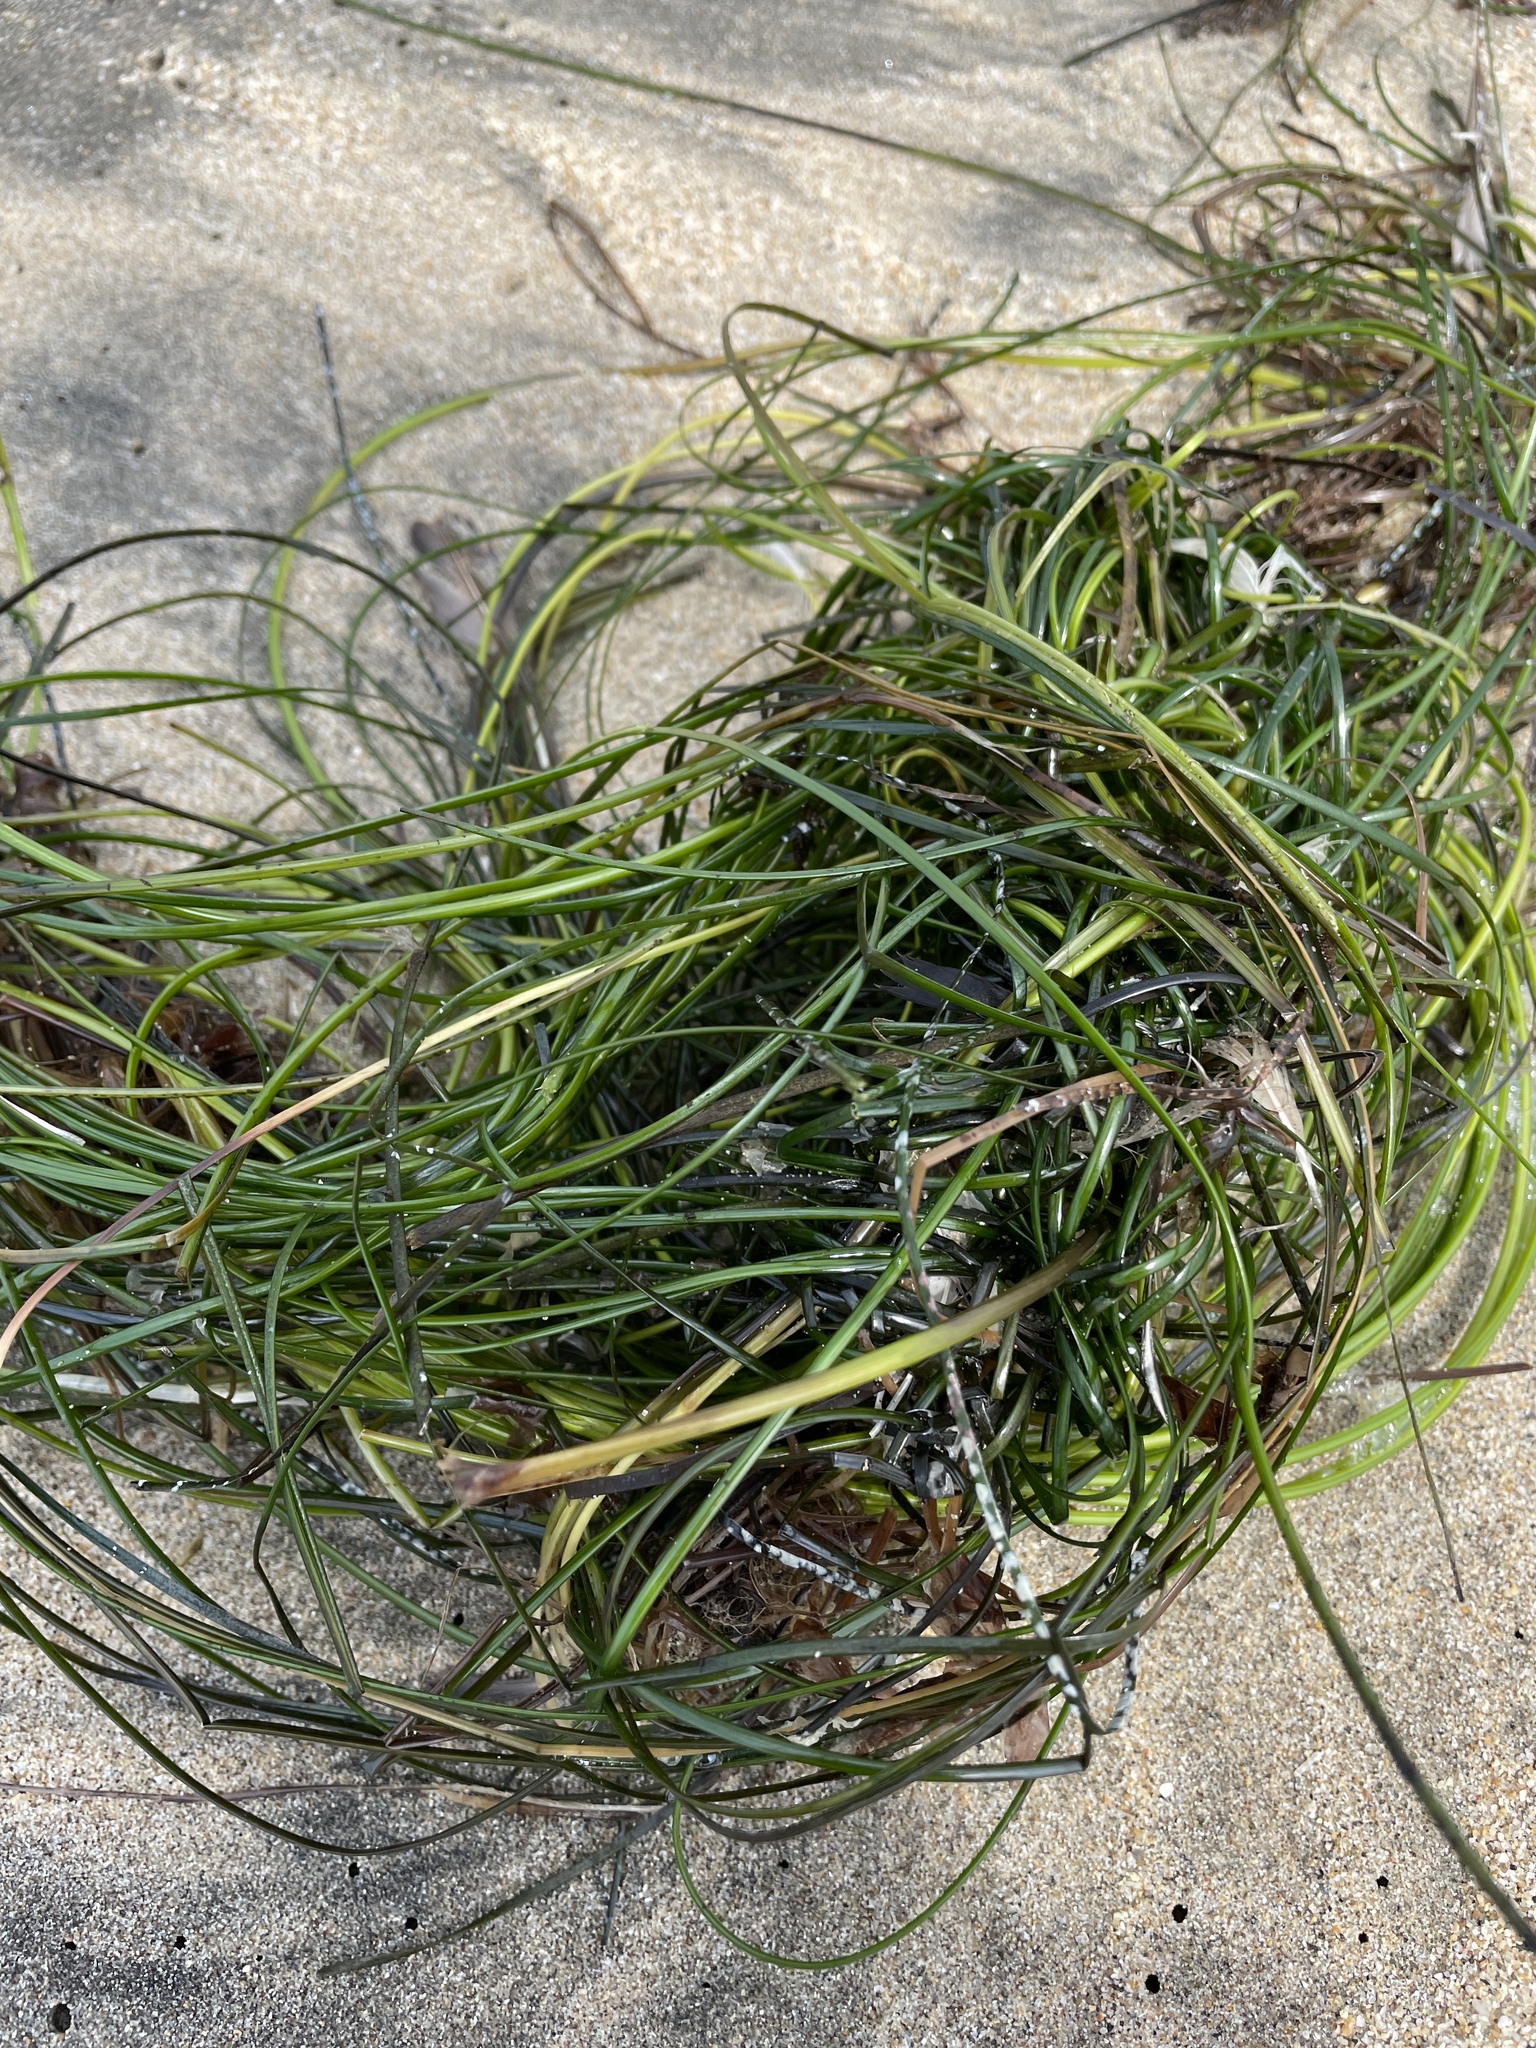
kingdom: Plantae
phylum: Tracheophyta
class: Liliopsida
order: Alismatales
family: Zosteraceae
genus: Phyllospadix
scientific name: Phyllospadix torreyi
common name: Surfgrass
